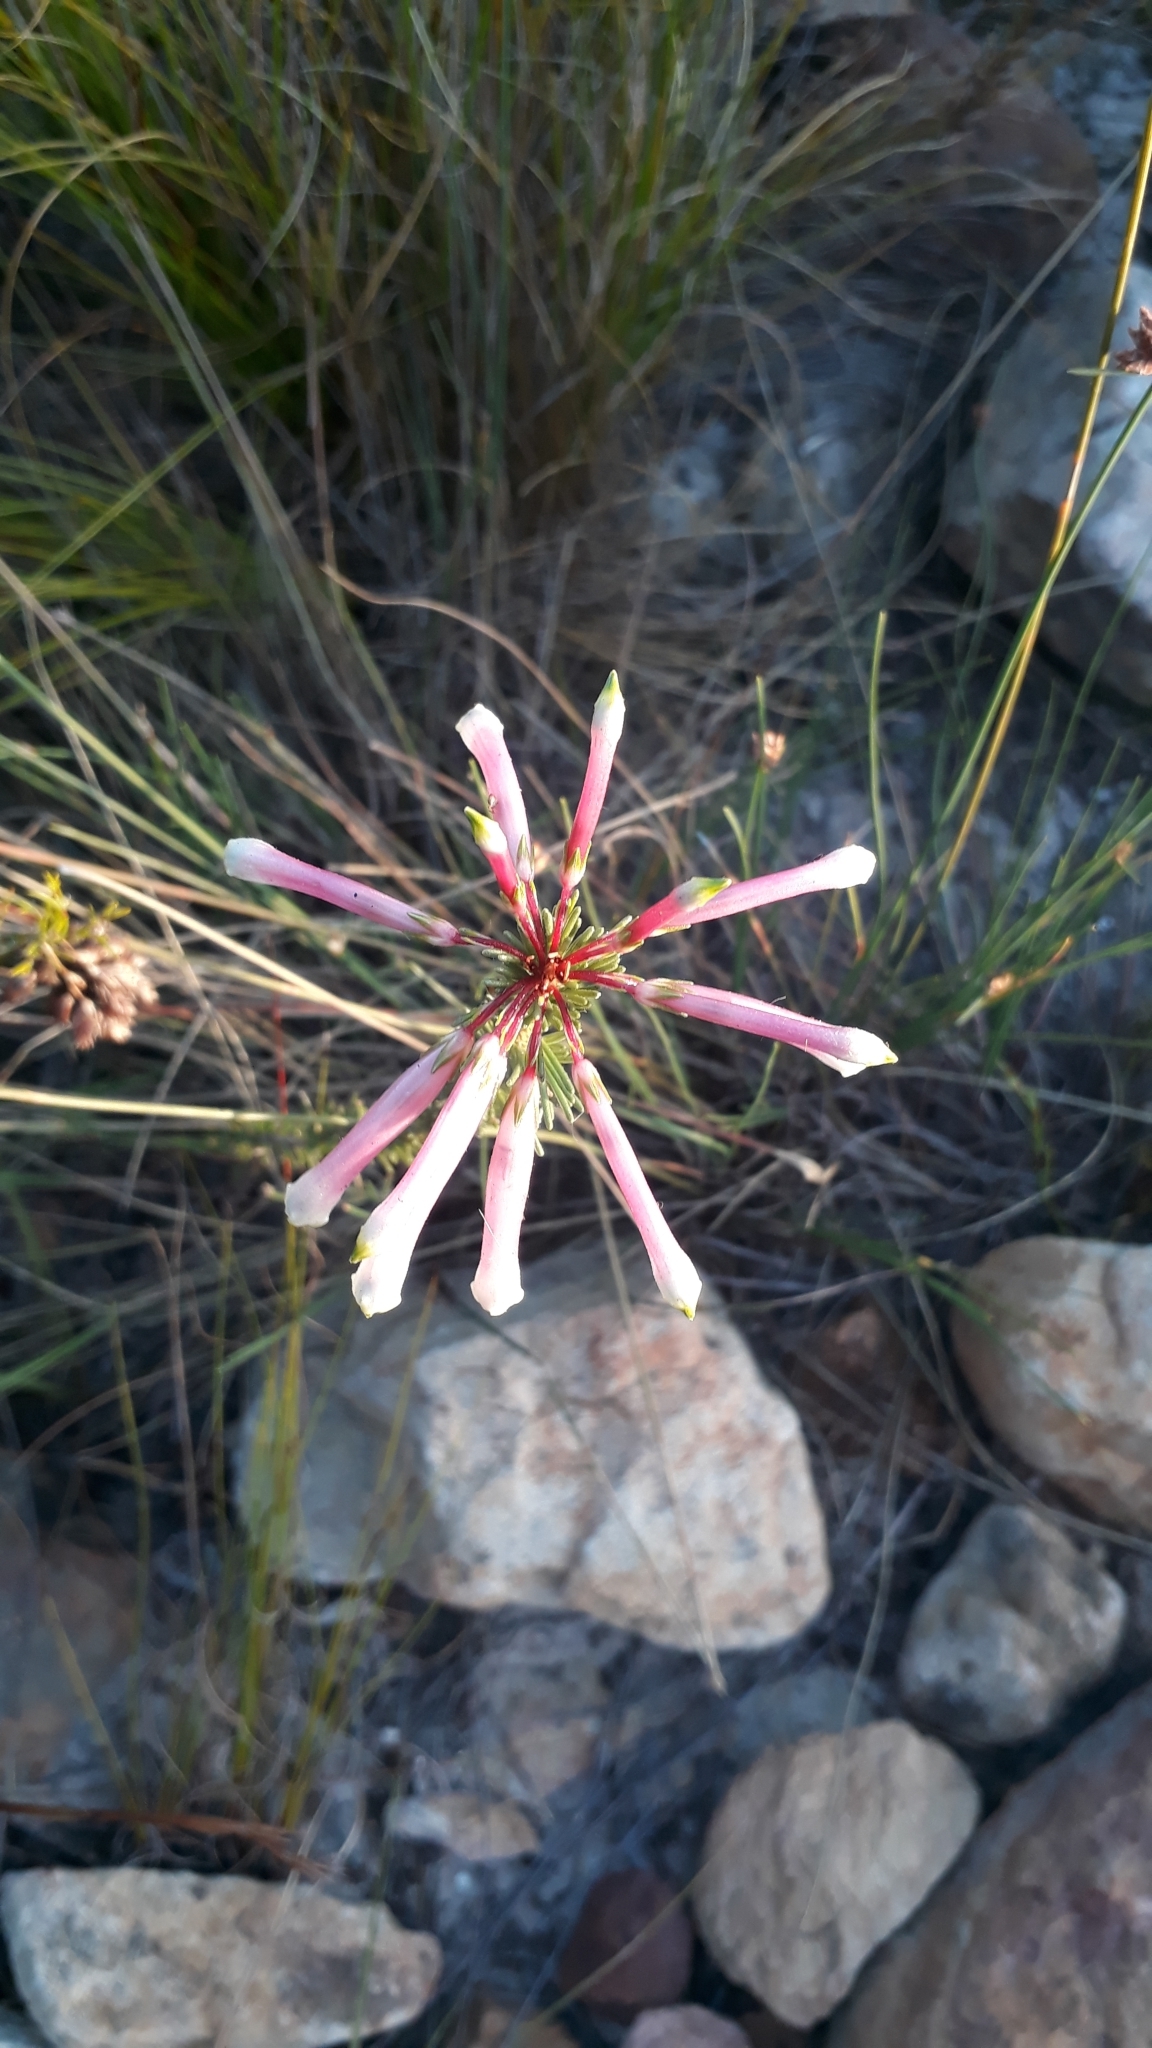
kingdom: Plantae
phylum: Tracheophyta
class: Magnoliopsida
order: Ericales
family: Ericaceae
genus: Erica
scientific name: Erica fascicularis
